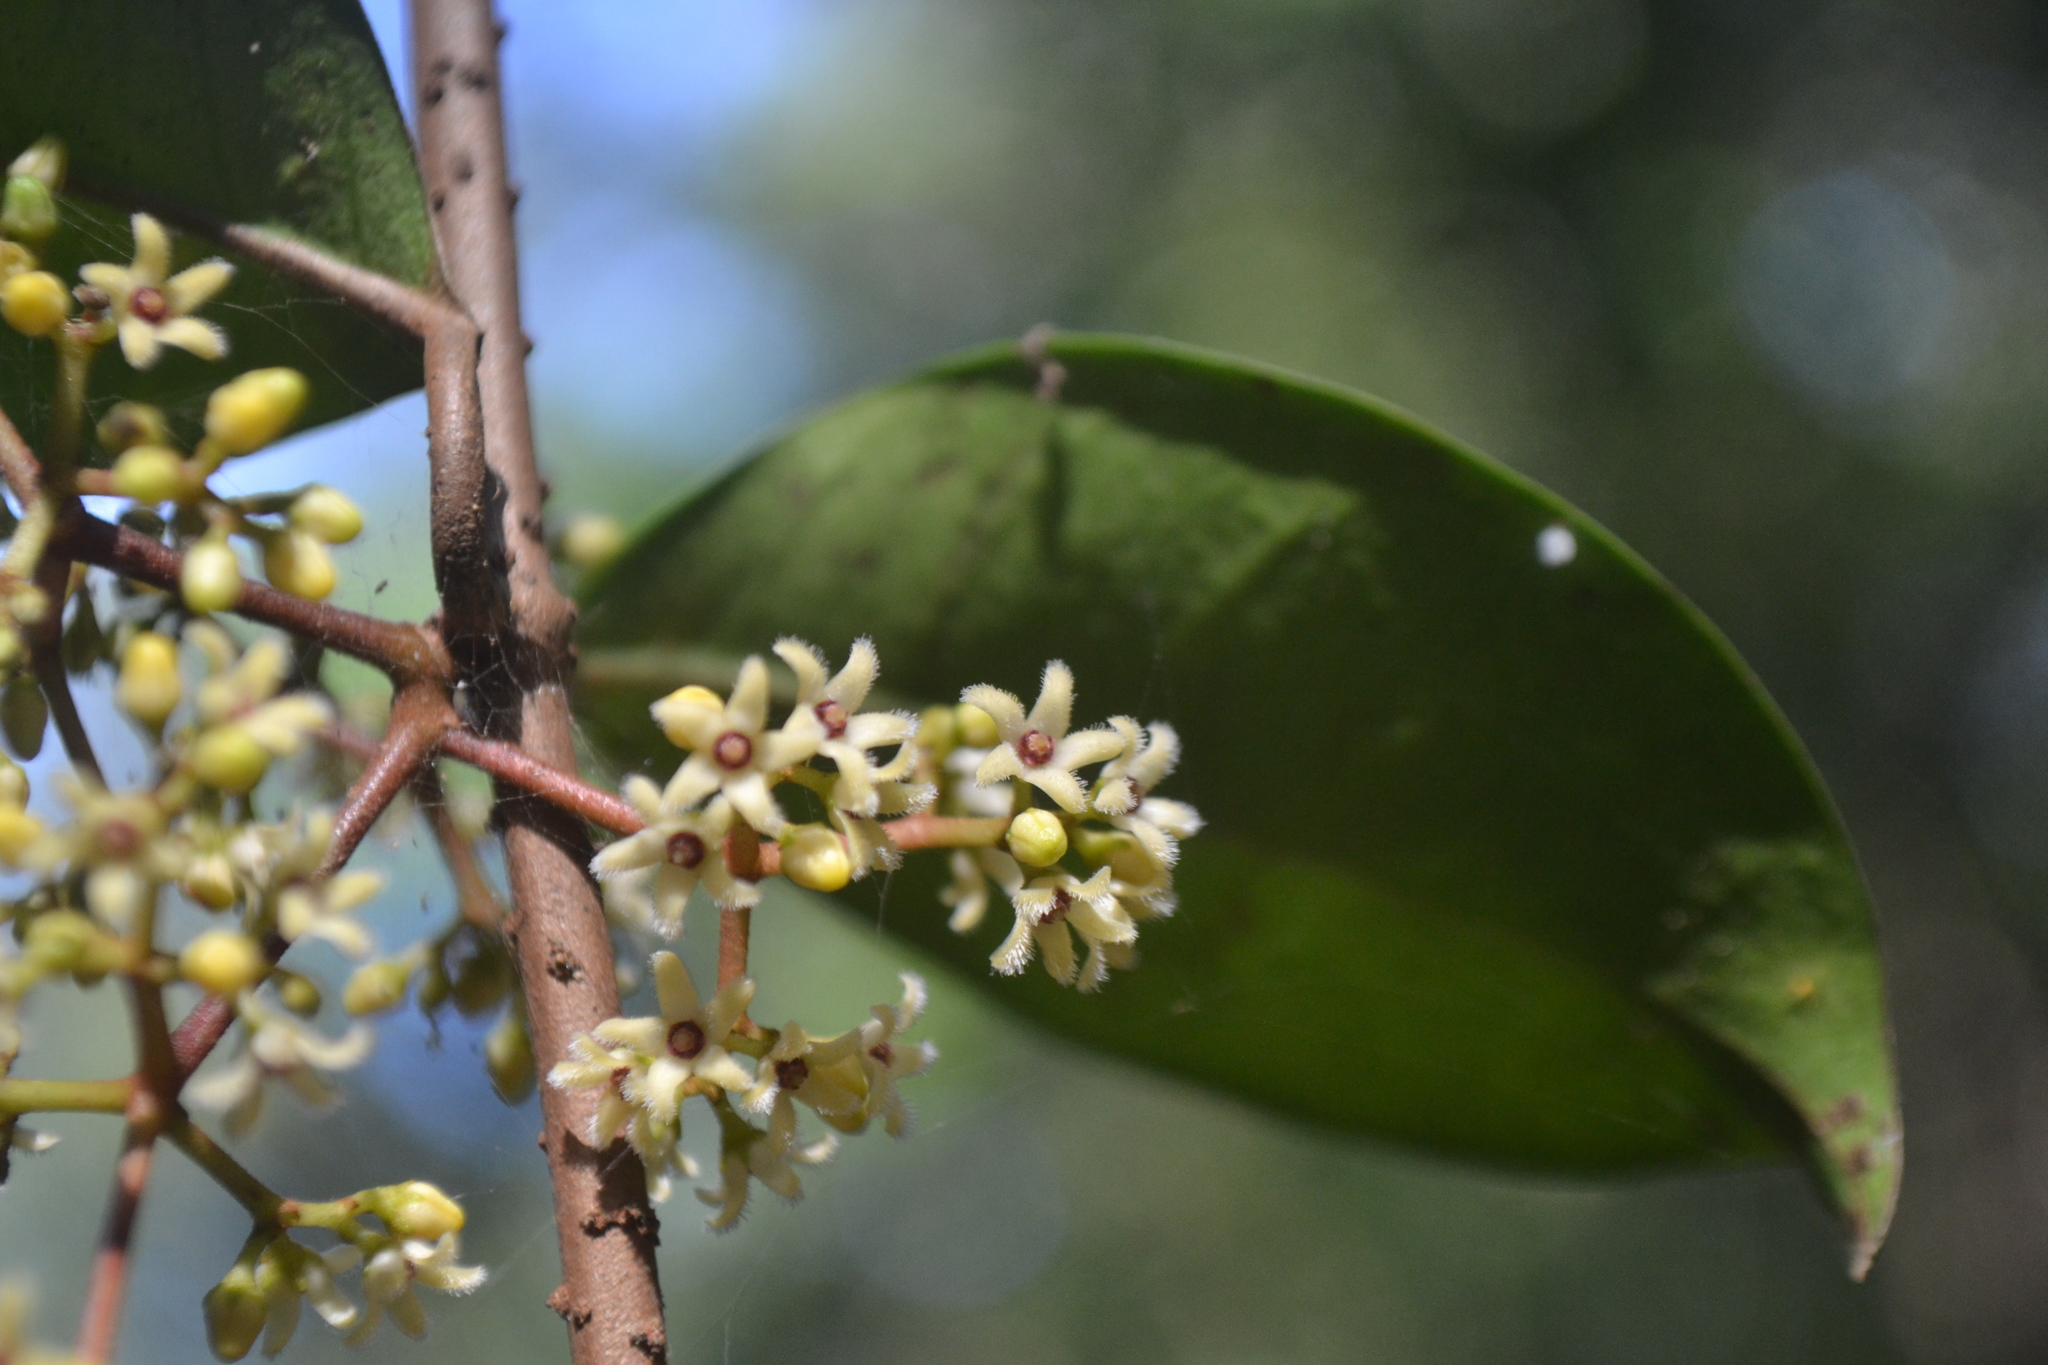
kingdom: Plantae
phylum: Tracheophyta
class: Magnoliopsida
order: Gentianales
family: Apocynaceae
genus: Genianthus
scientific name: Genianthus micranthus
